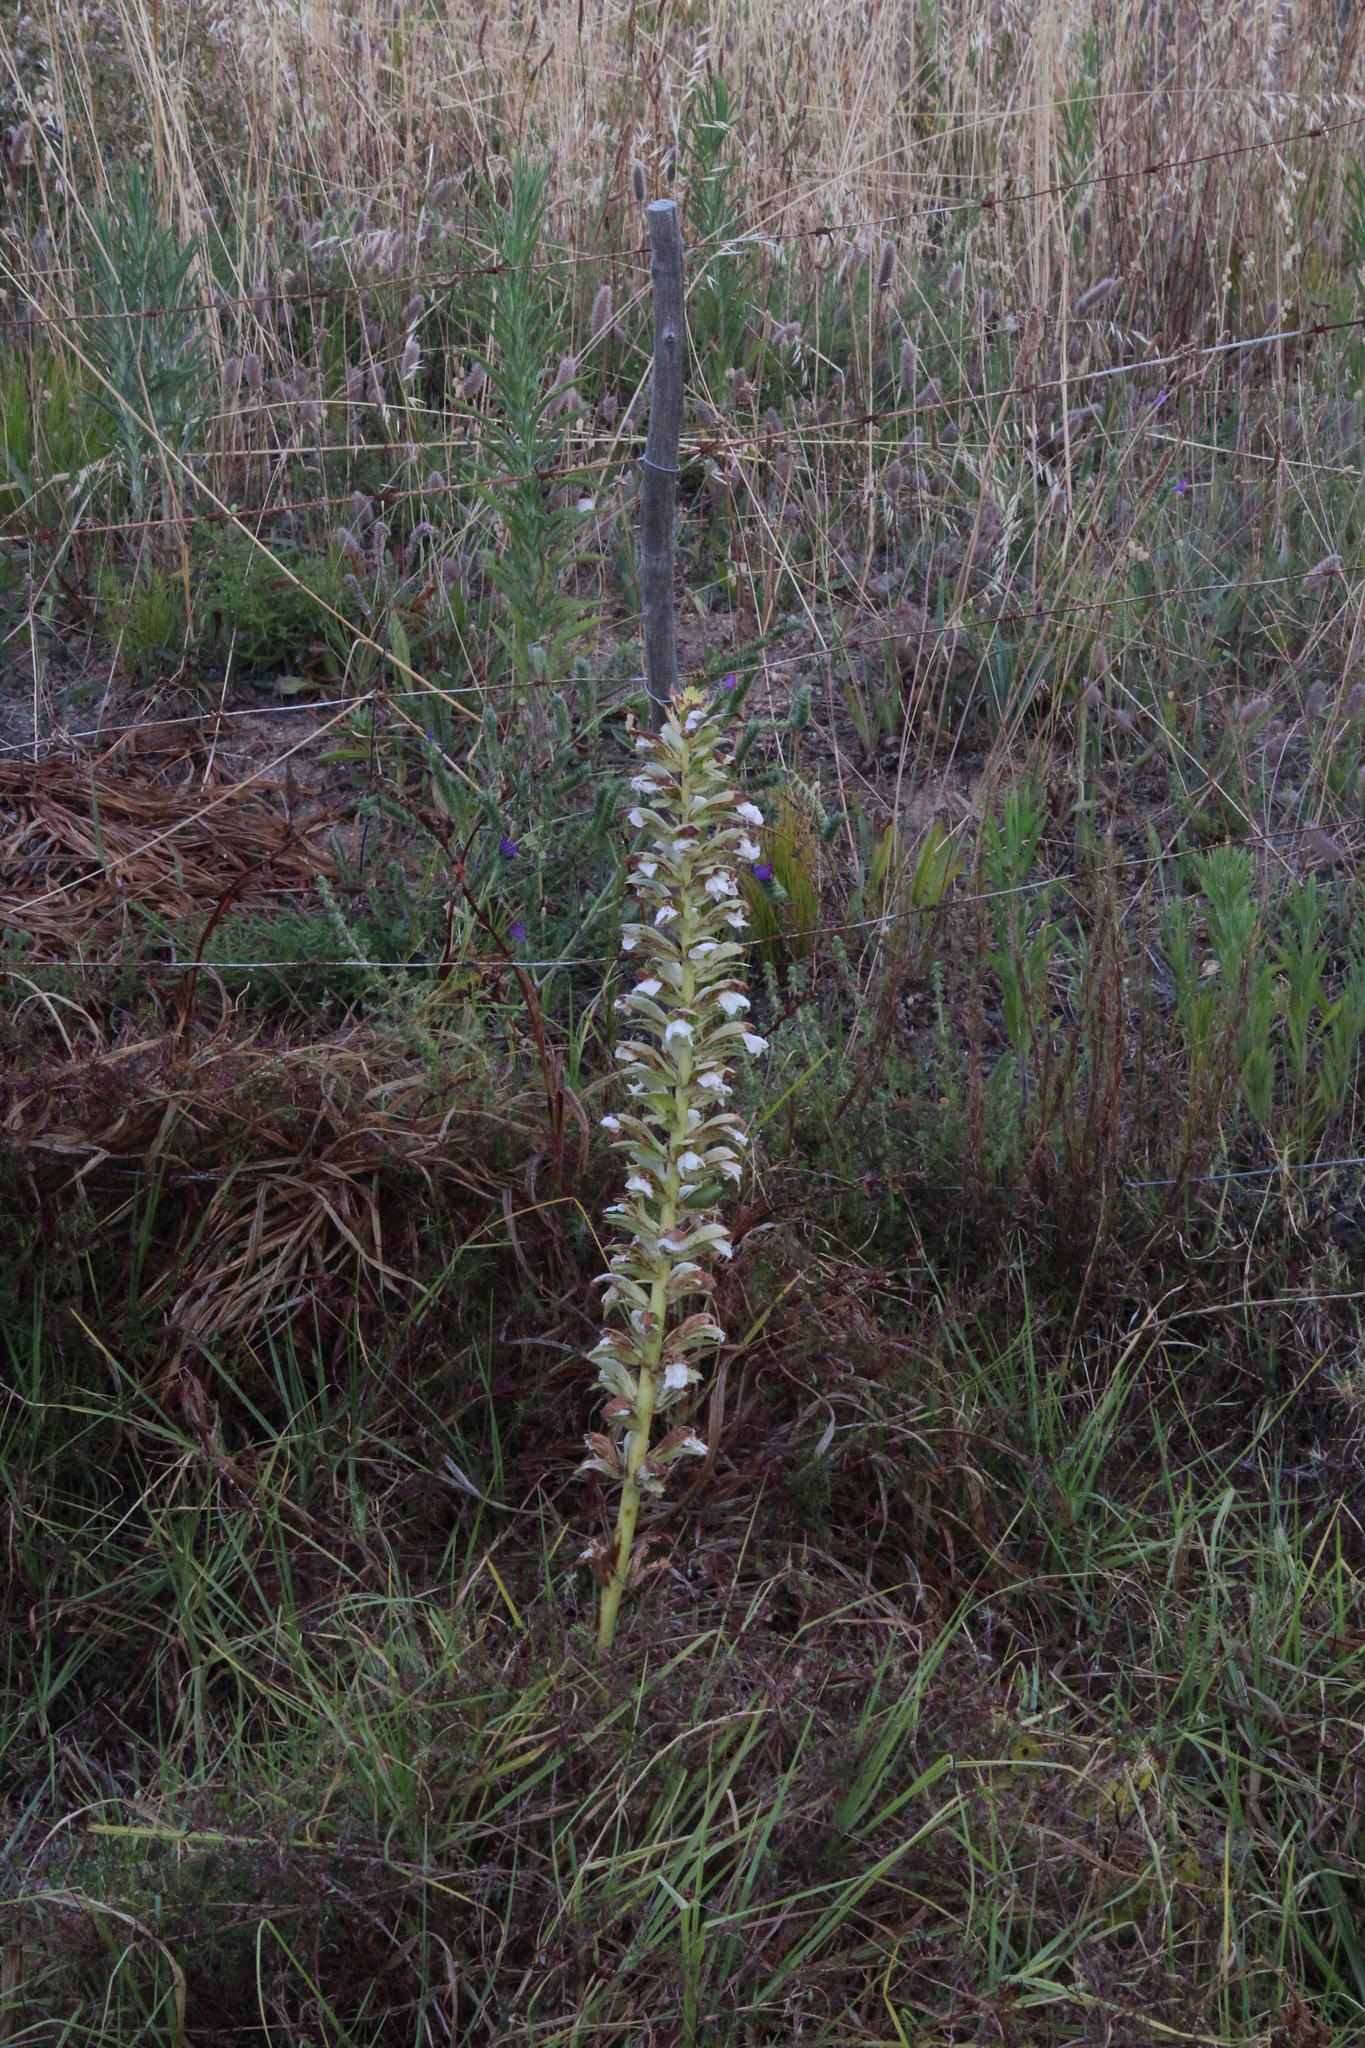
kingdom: Plantae
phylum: Tracheophyta
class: Magnoliopsida
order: Lamiales
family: Acanthaceae
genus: Acanthus
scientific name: Acanthus mollis
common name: Bear's-breech
